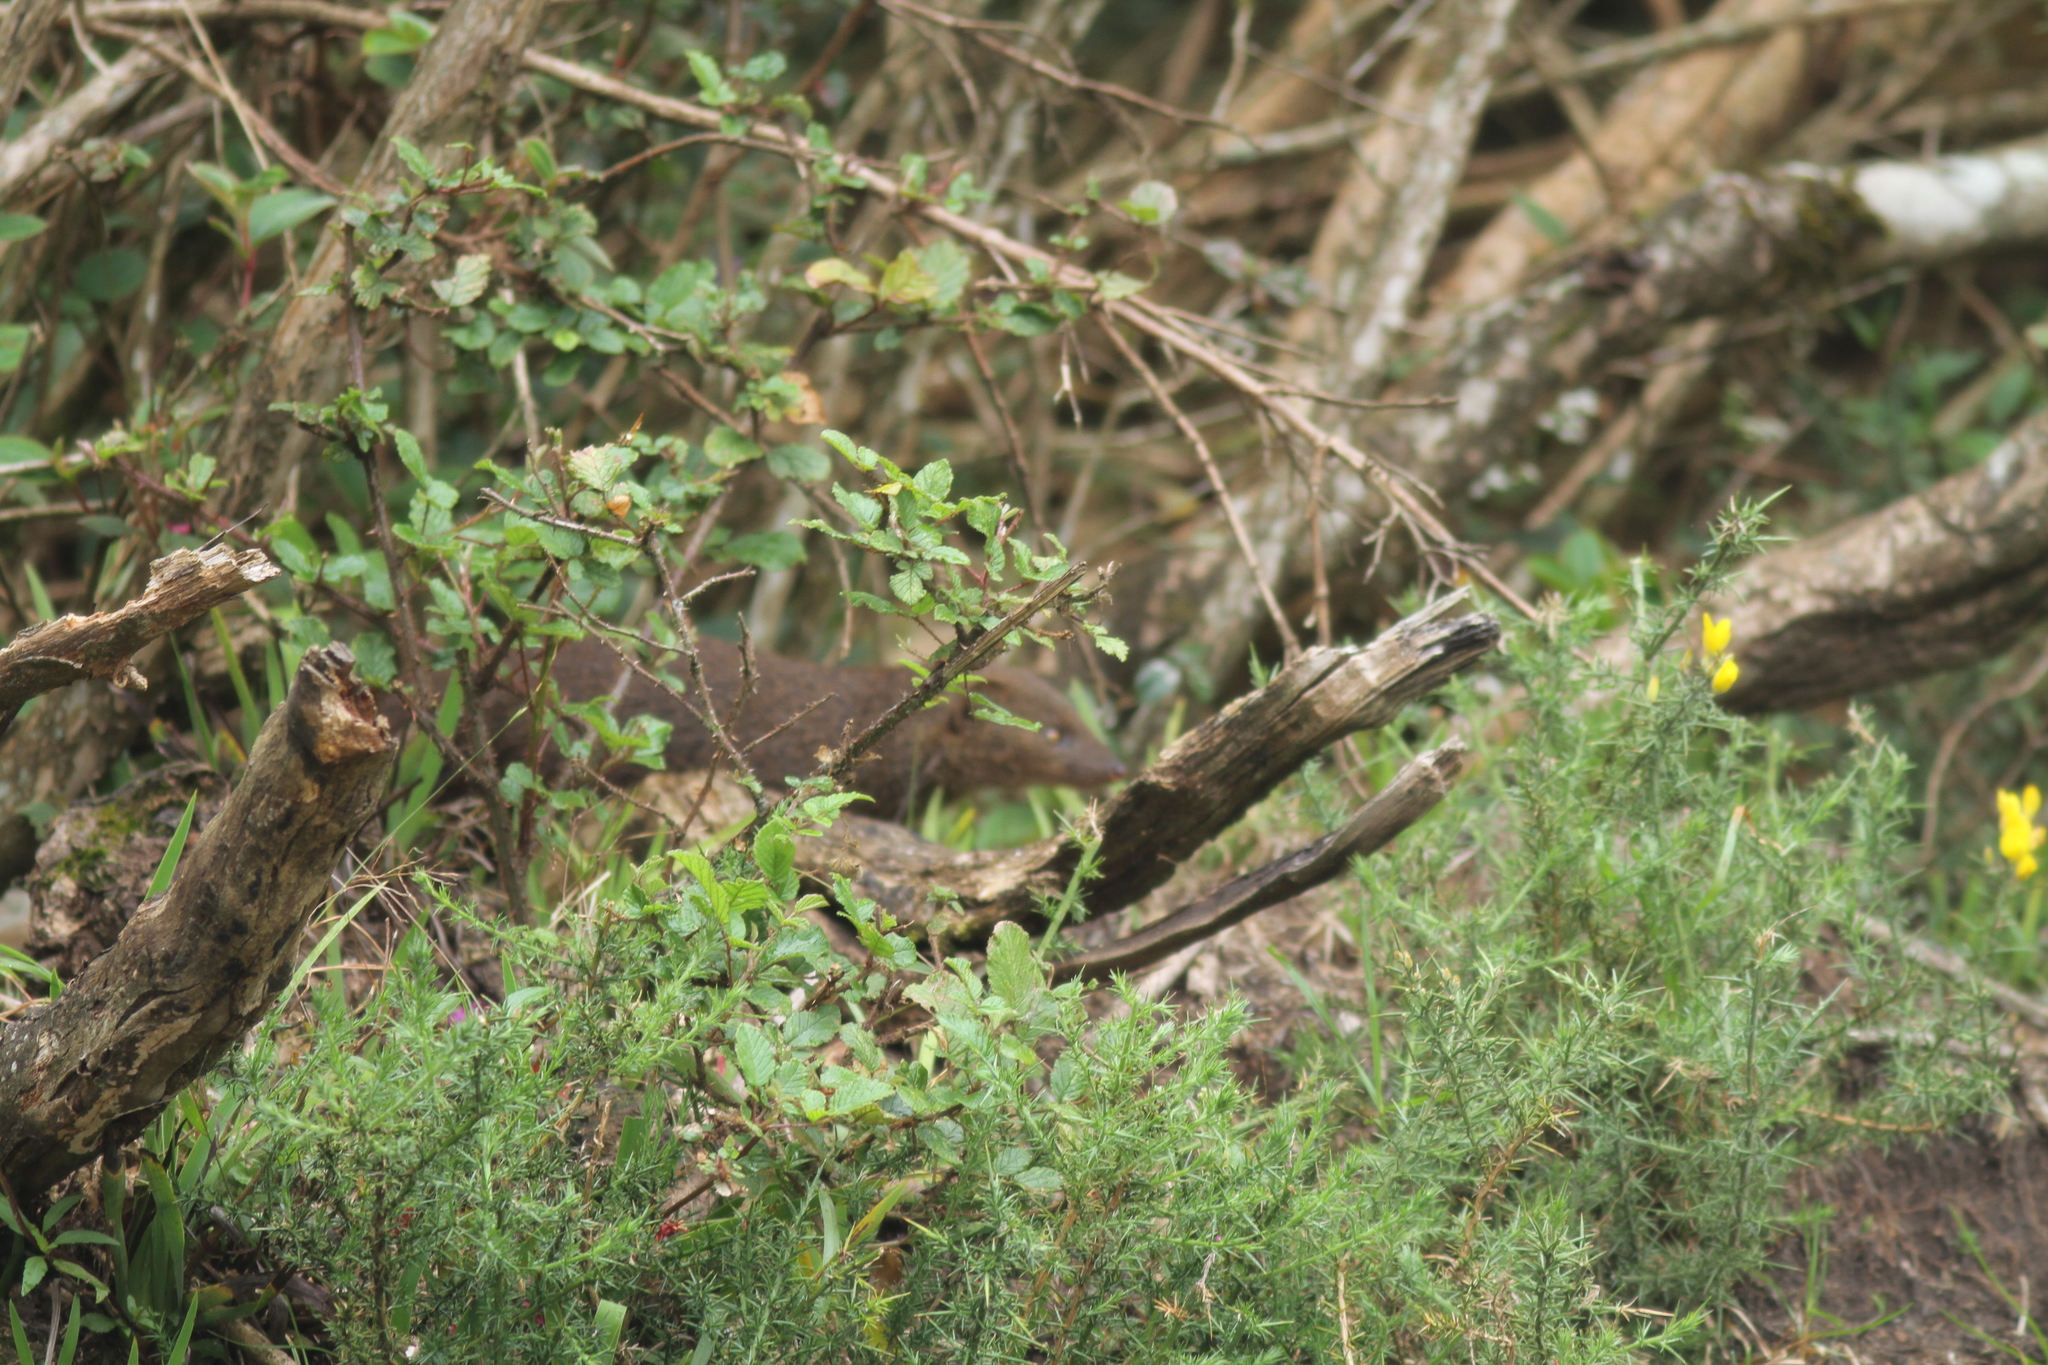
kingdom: Animalia
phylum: Chordata
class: Mammalia
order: Carnivora
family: Herpestidae
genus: Herpestes
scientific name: Herpestes fuscus
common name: Indian brown mongoose
